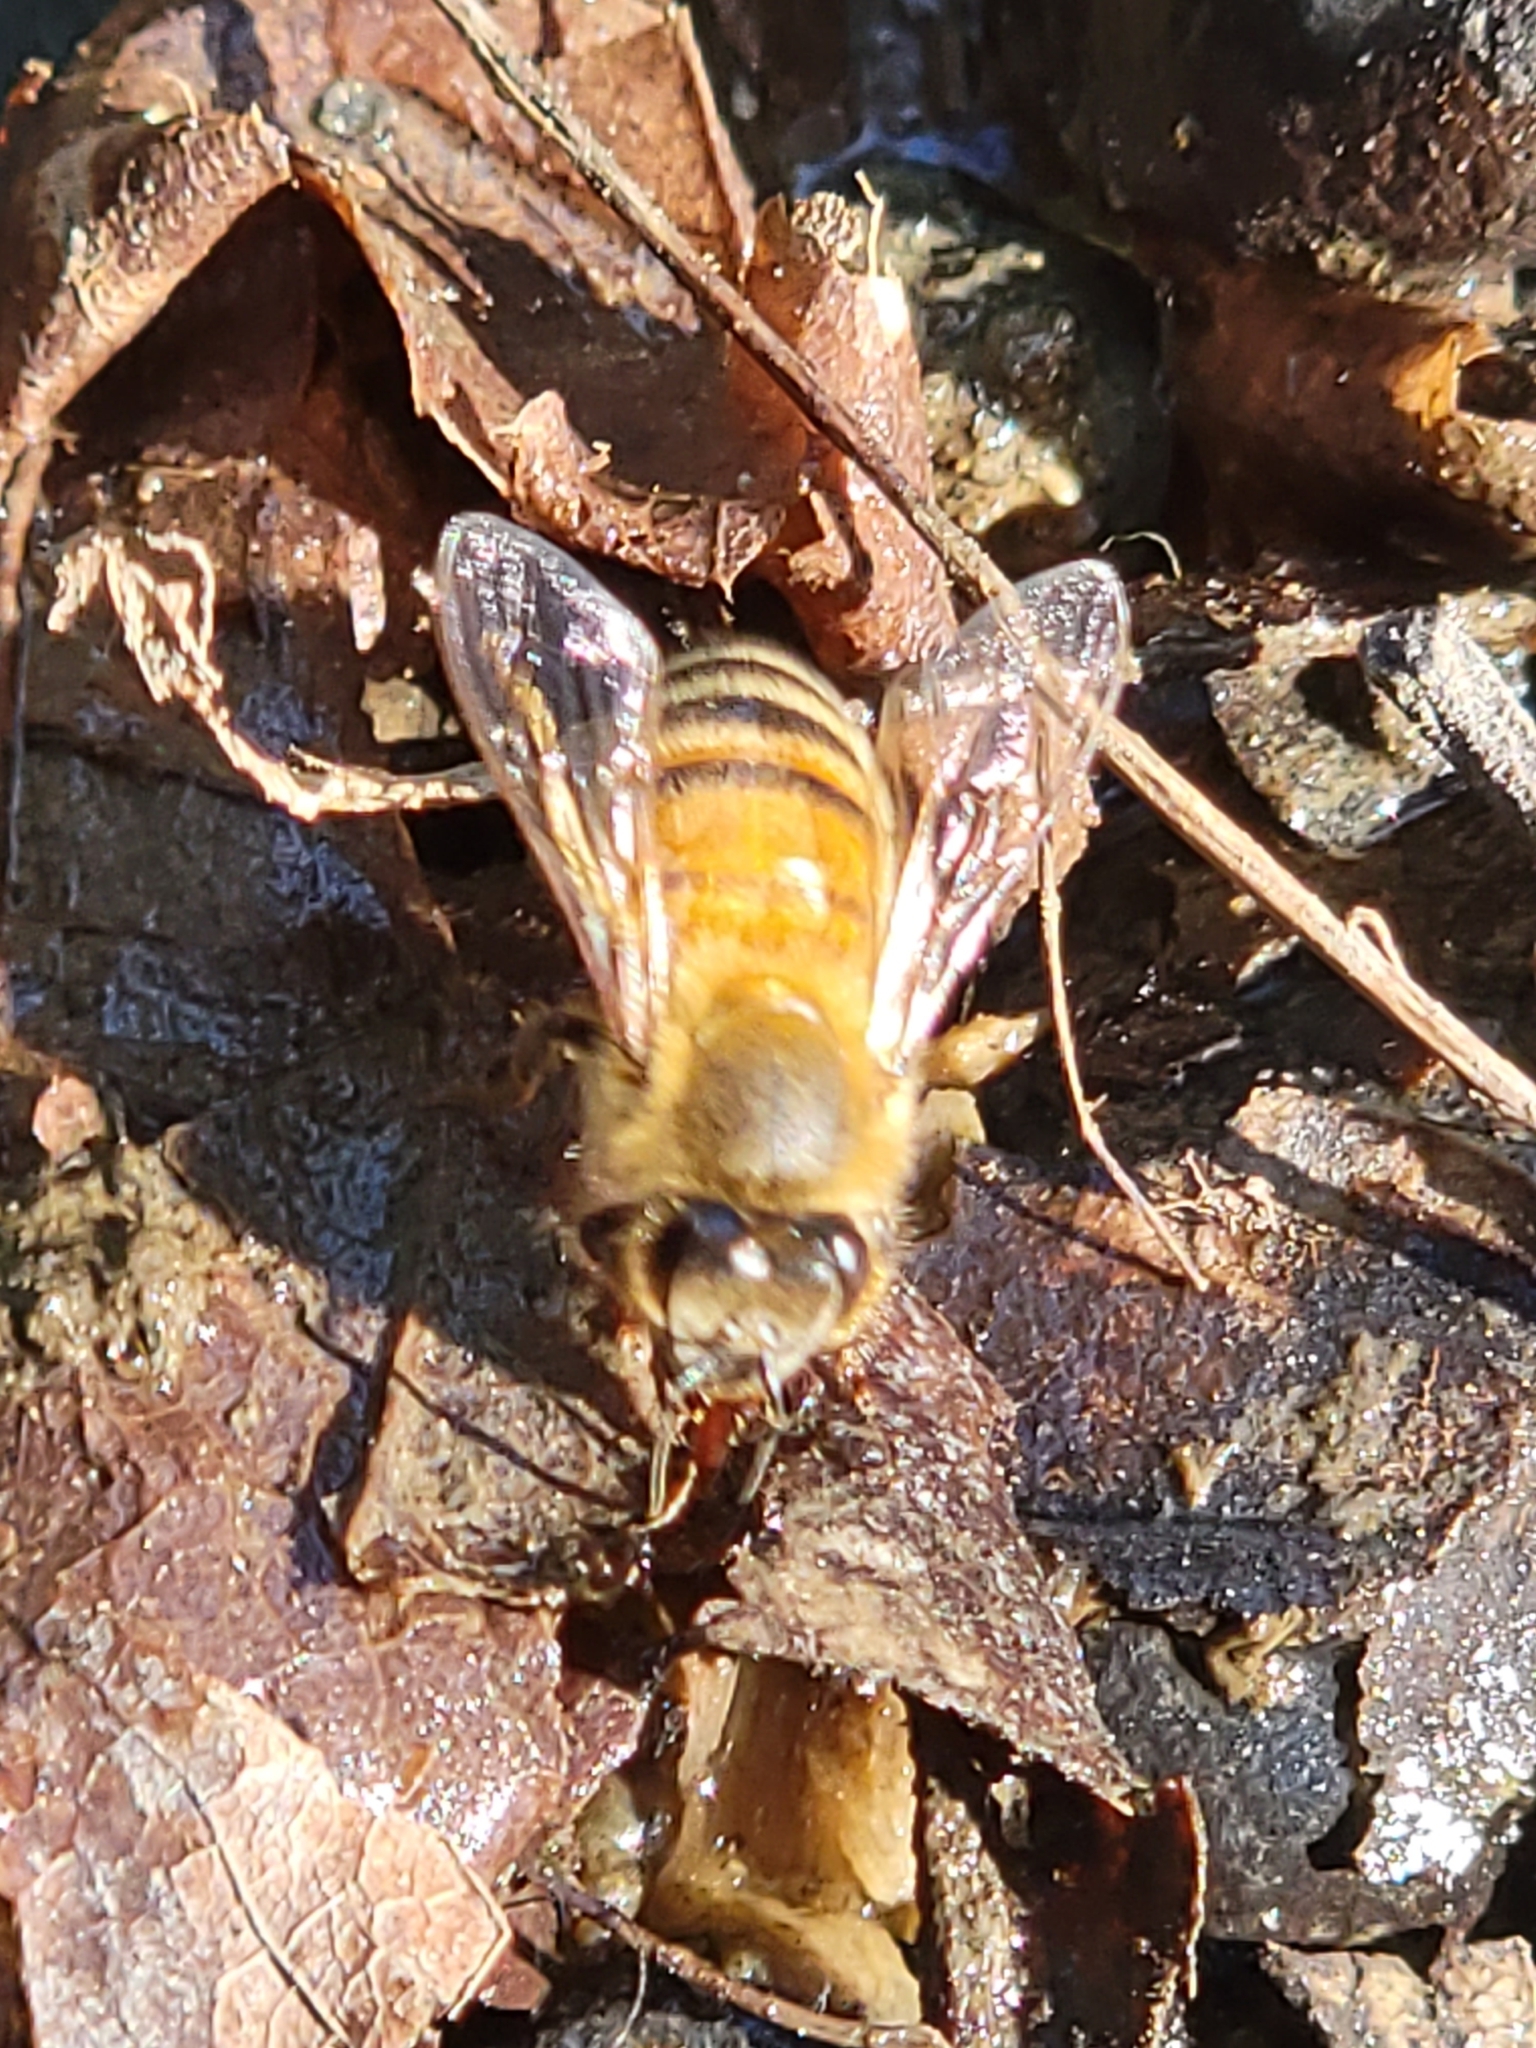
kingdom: Animalia
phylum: Arthropoda
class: Insecta
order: Hymenoptera
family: Apidae
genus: Apis
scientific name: Apis mellifera
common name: Honey bee
